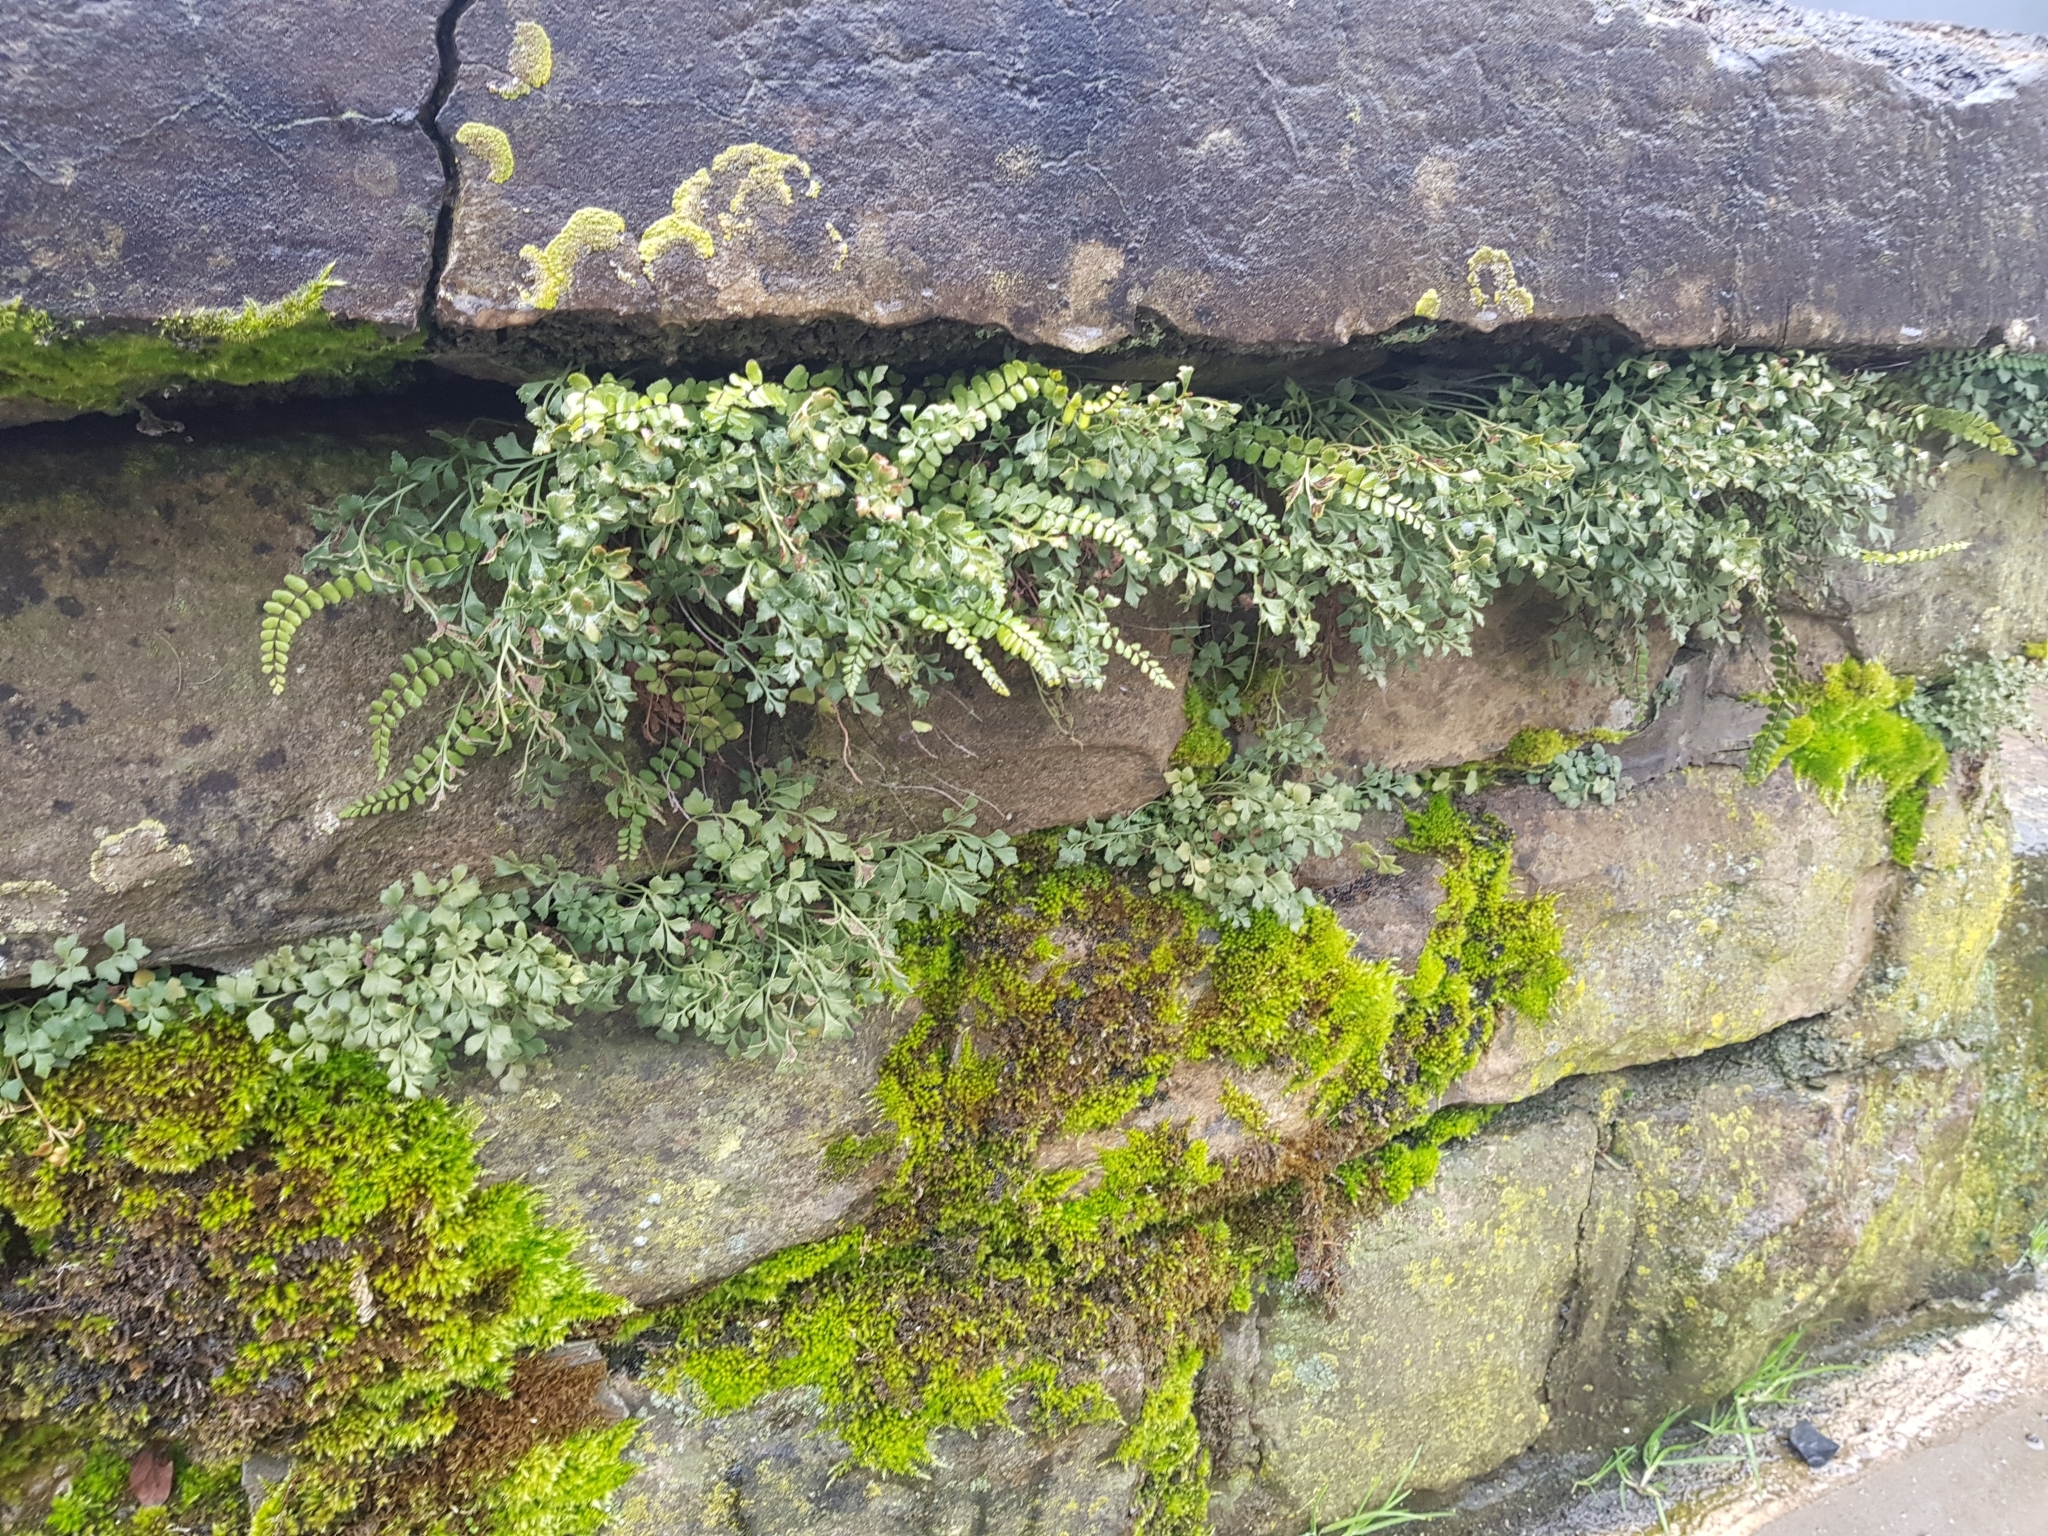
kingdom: Plantae
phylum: Tracheophyta
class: Polypodiopsida
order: Polypodiales
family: Aspleniaceae
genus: Asplenium
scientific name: Asplenium ruta-muraria
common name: Wall-rue
